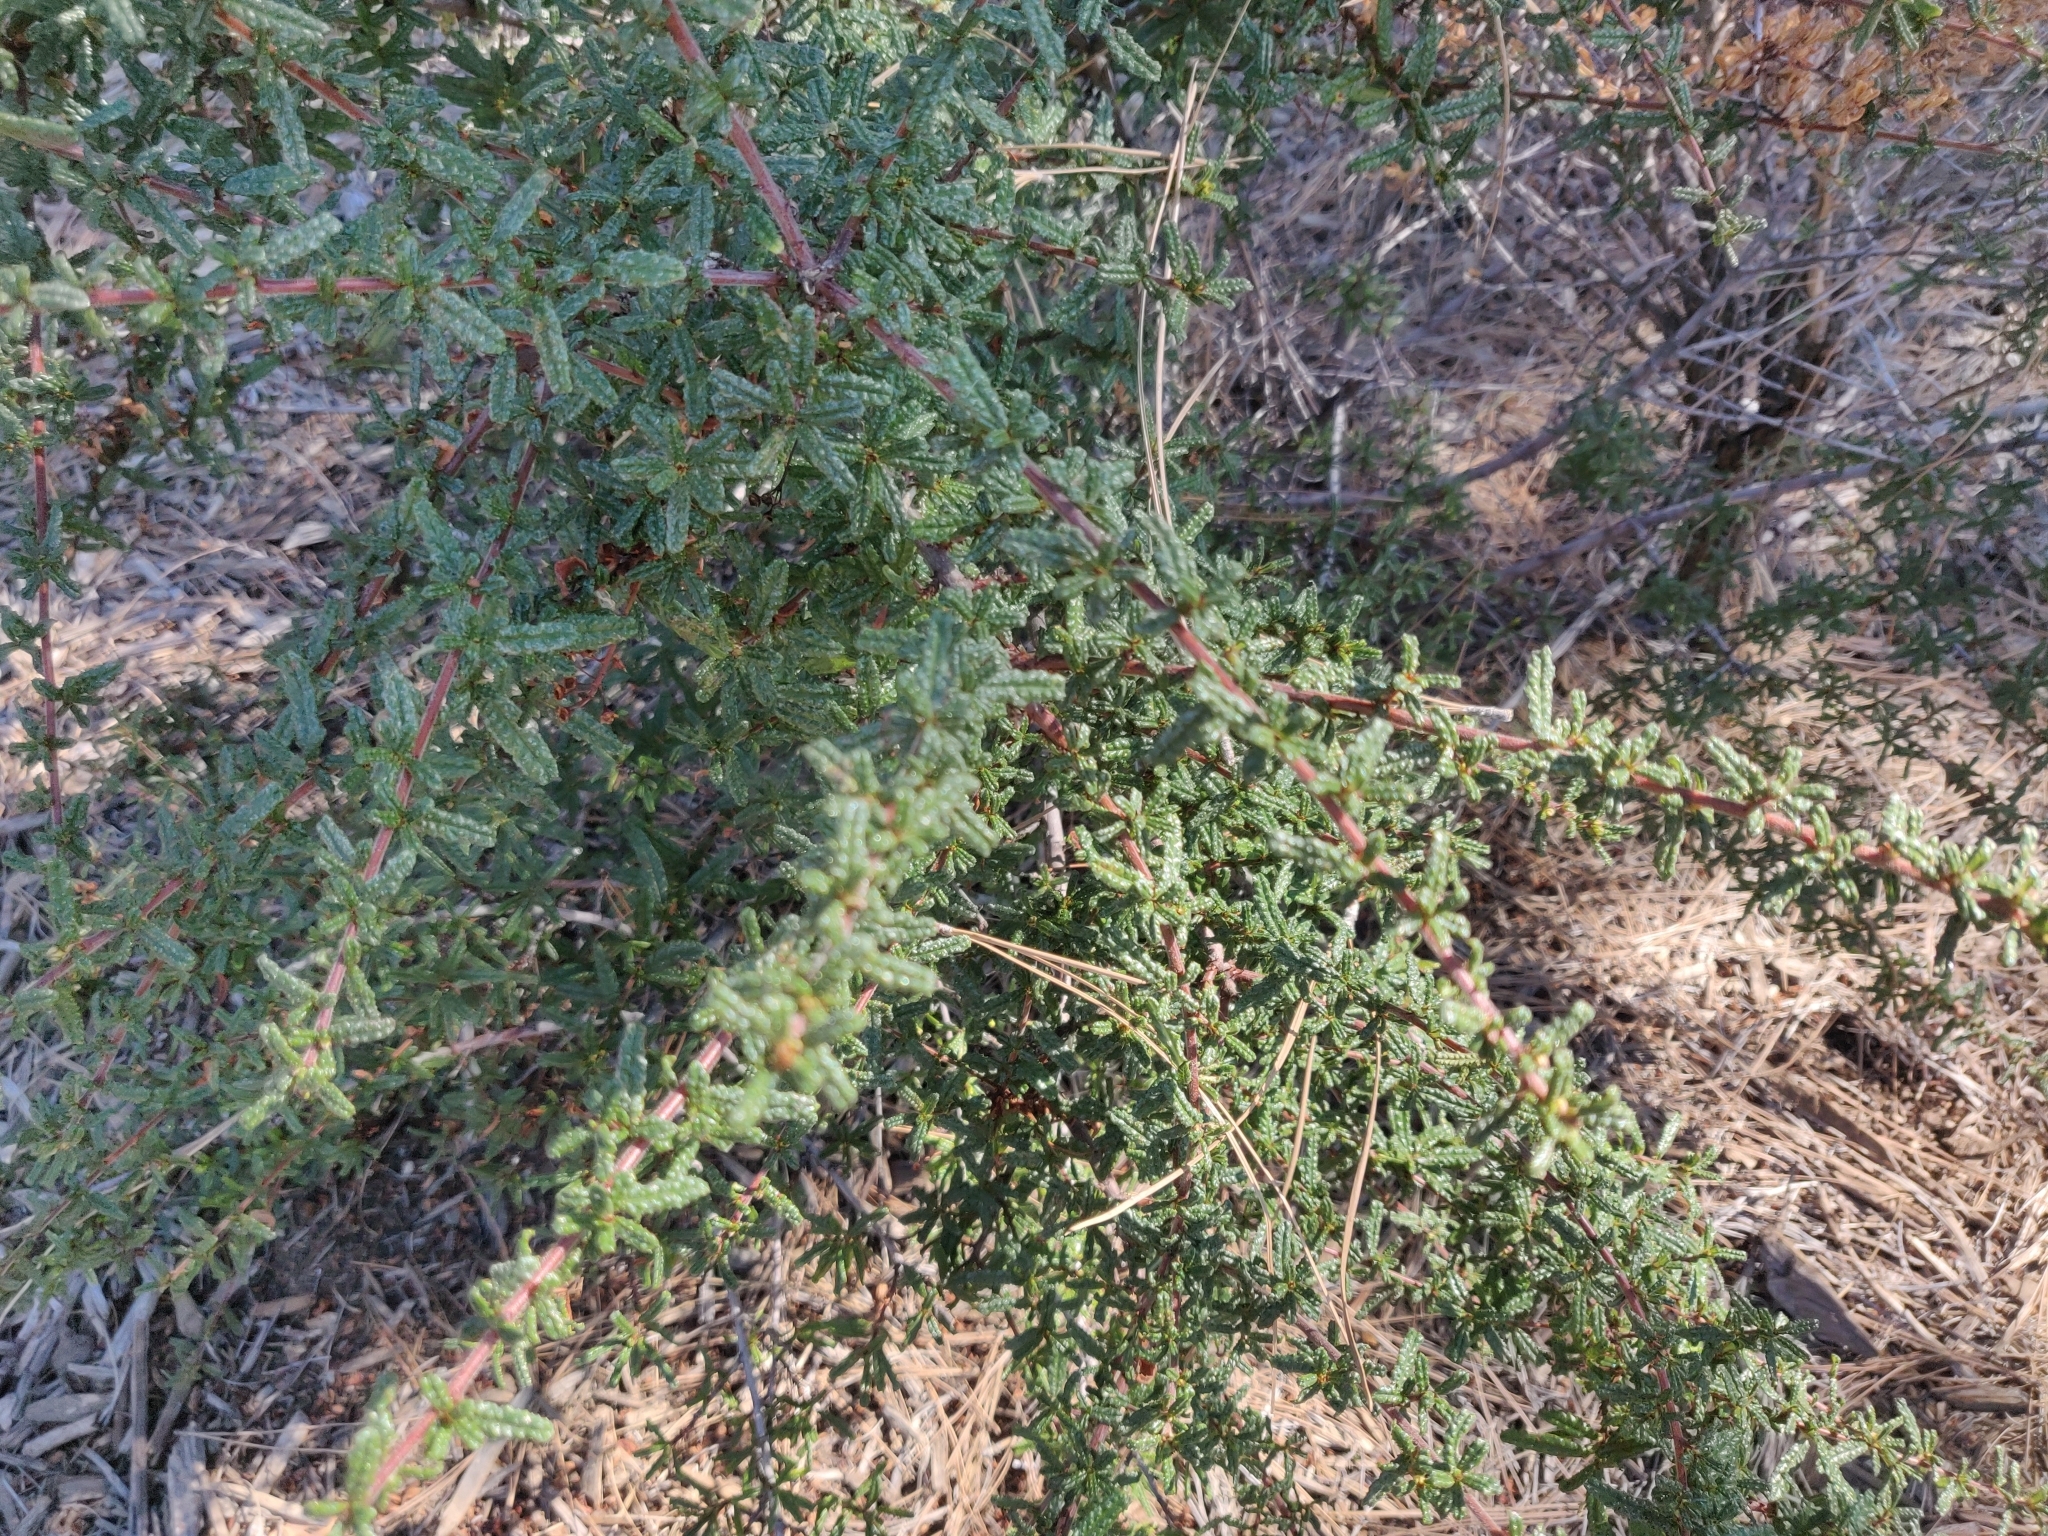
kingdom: Plantae
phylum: Tracheophyta
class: Magnoliopsida
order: Rosales
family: Rhamnaceae
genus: Ceanothus
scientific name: Ceanothus papillosus
